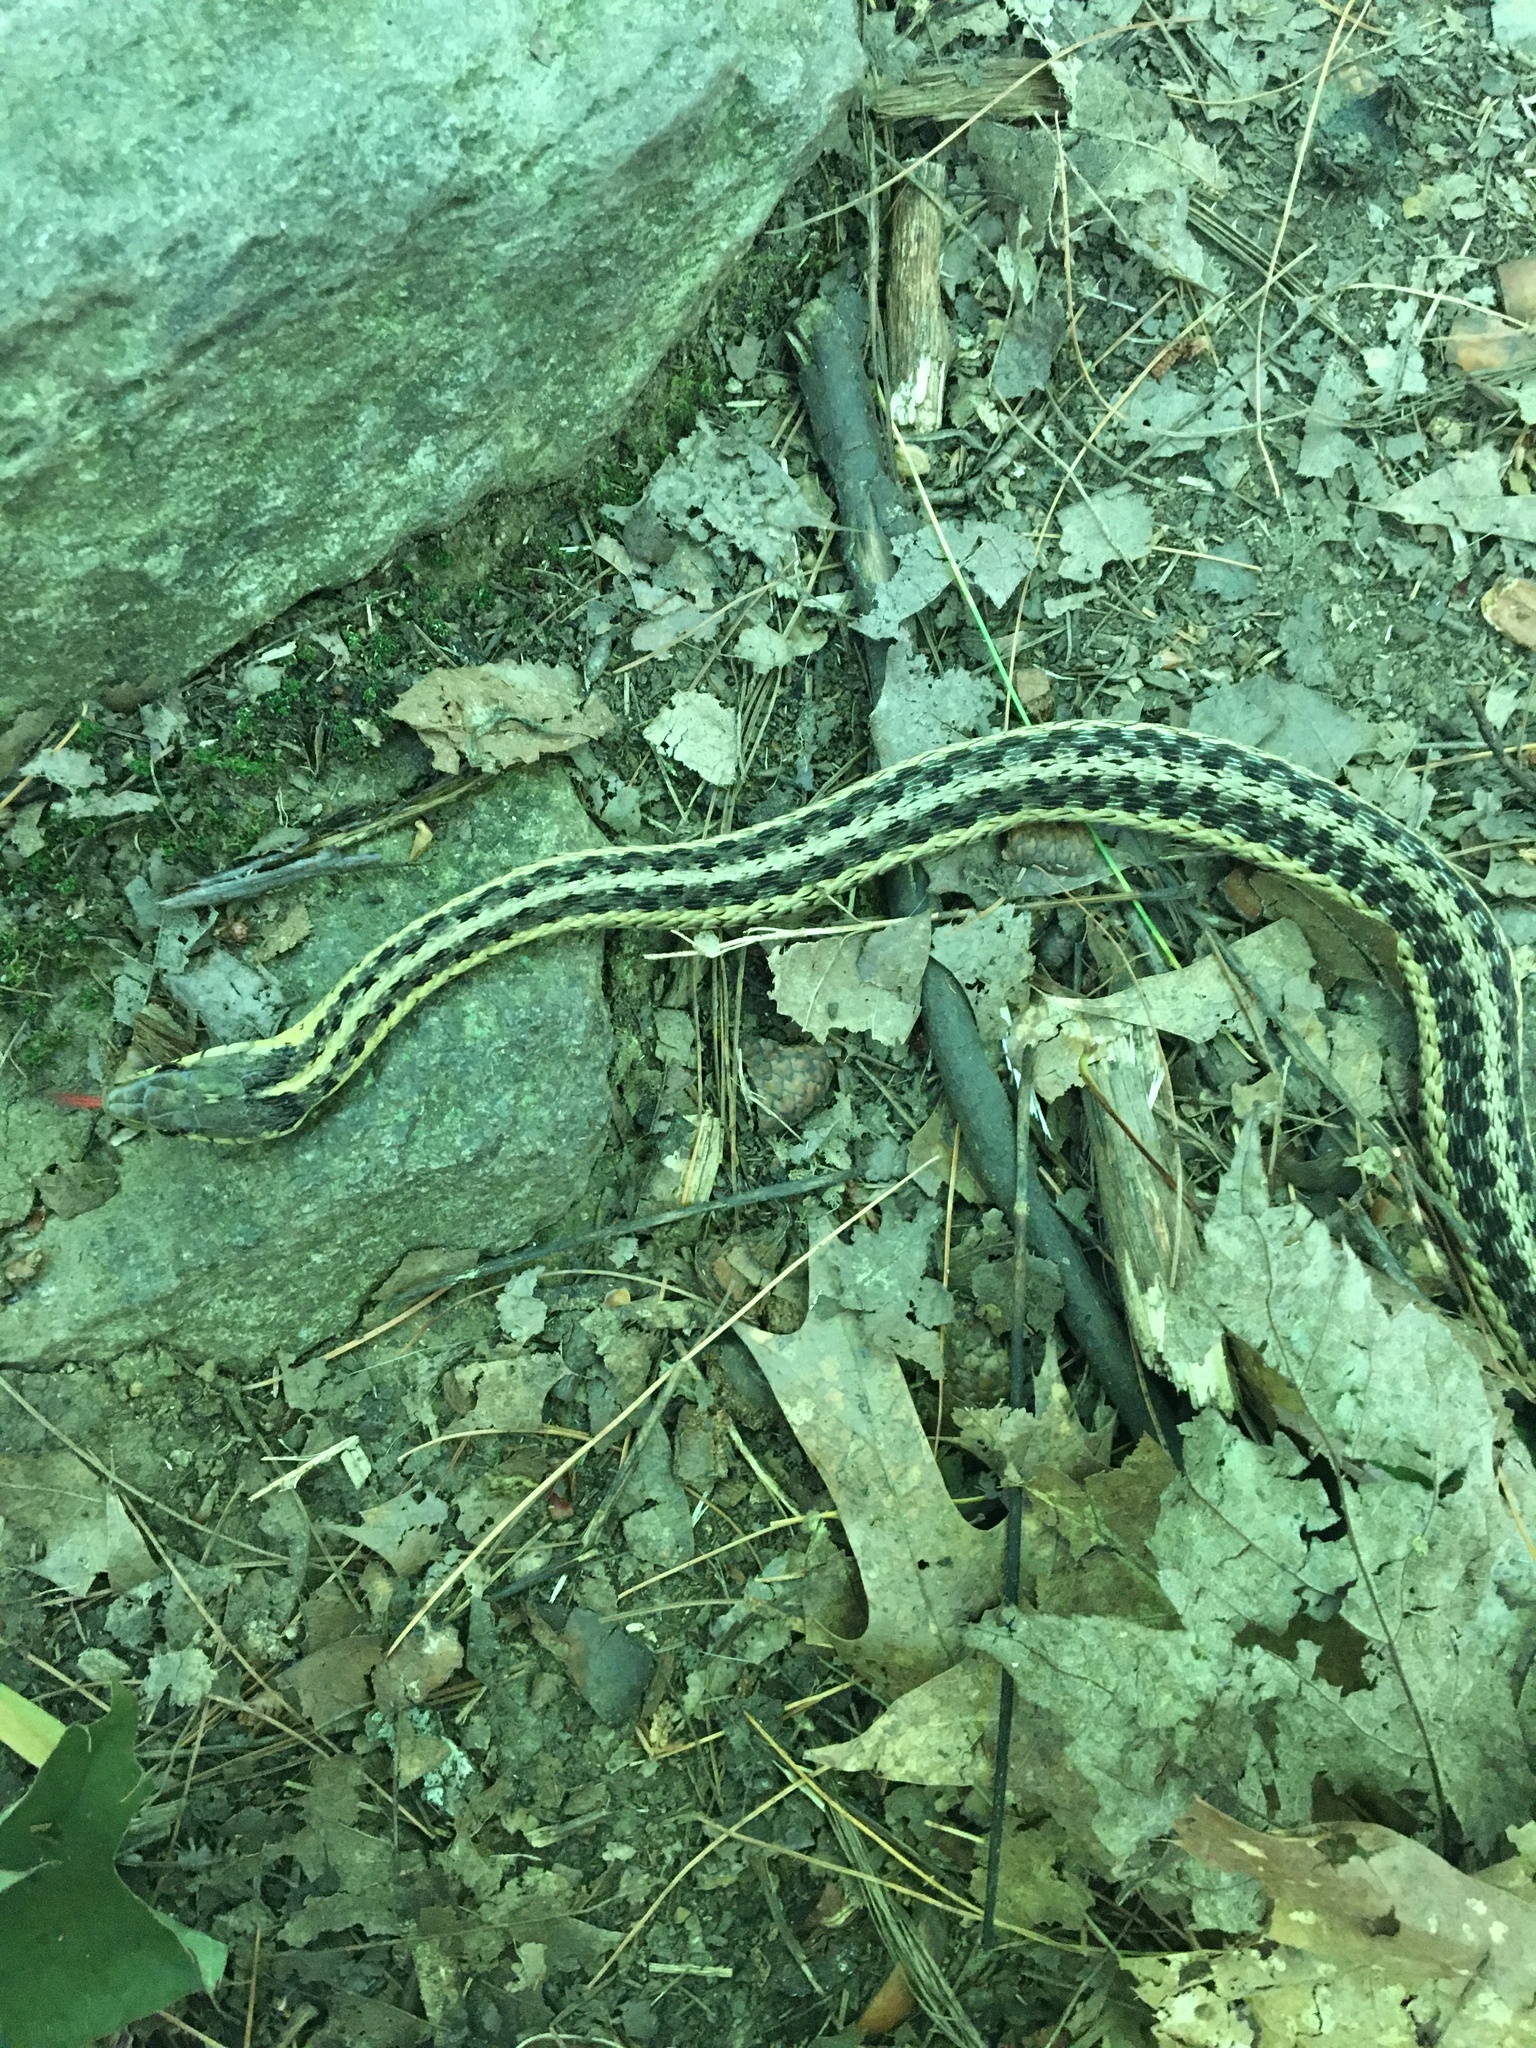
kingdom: Animalia
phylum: Chordata
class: Squamata
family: Colubridae
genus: Thamnophis
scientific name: Thamnophis sirtalis
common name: Common garter snake
